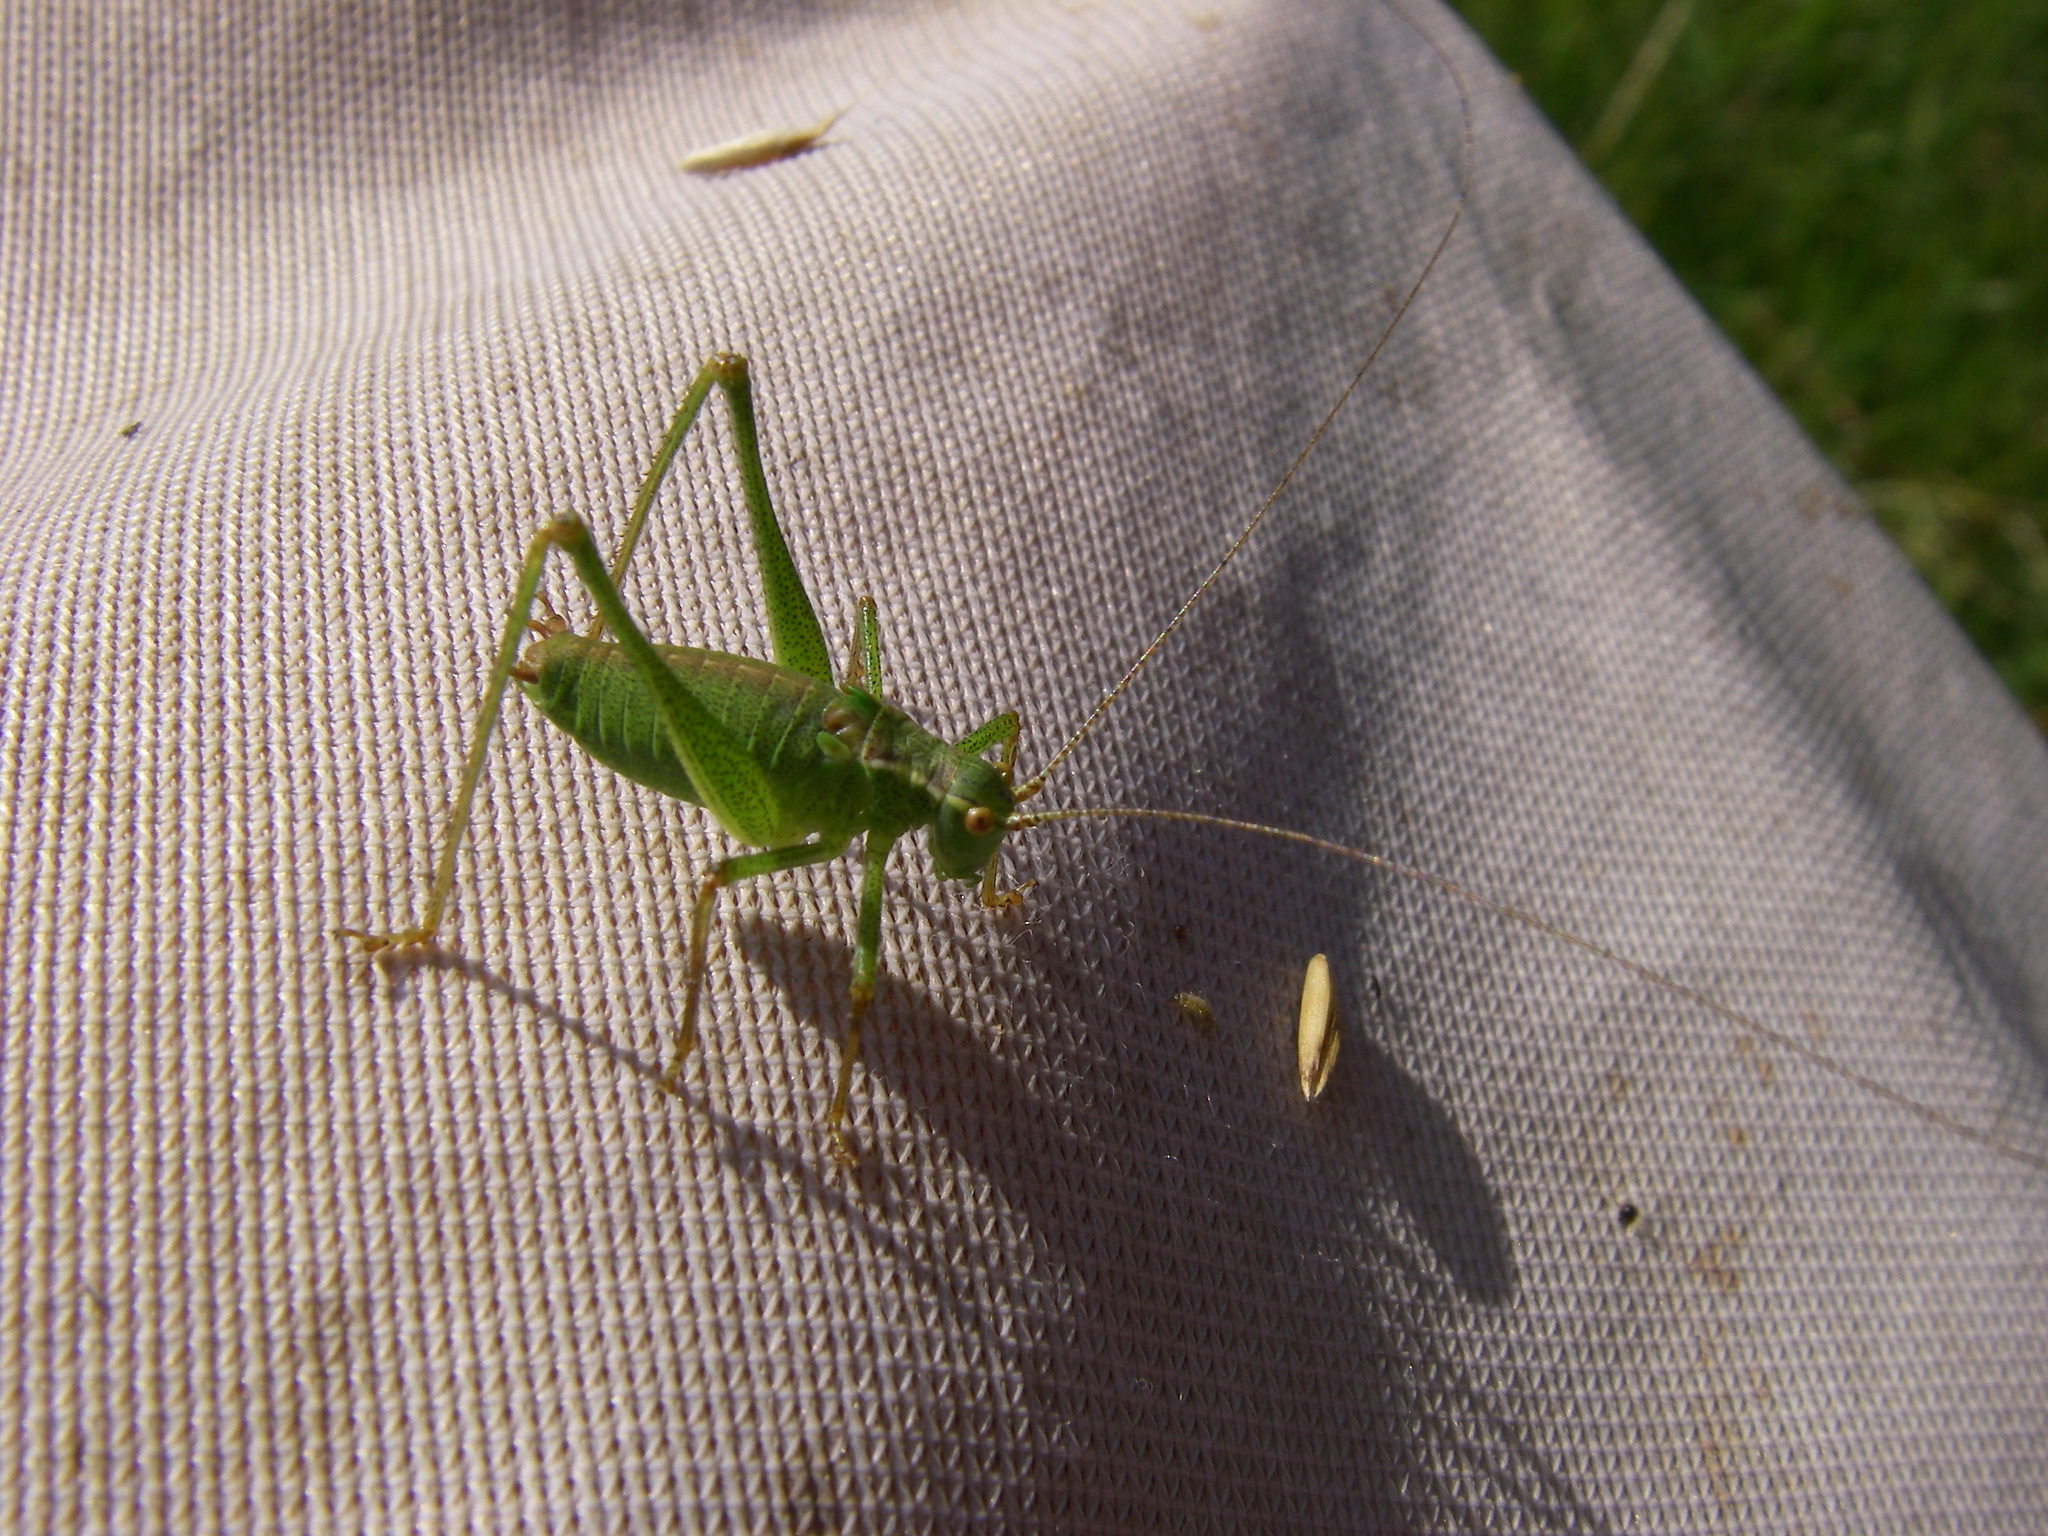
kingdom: Animalia
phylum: Arthropoda
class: Insecta
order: Orthoptera
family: Tettigoniidae
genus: Leptophyes
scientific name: Leptophyes punctatissima
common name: Speckled bush-cricket
